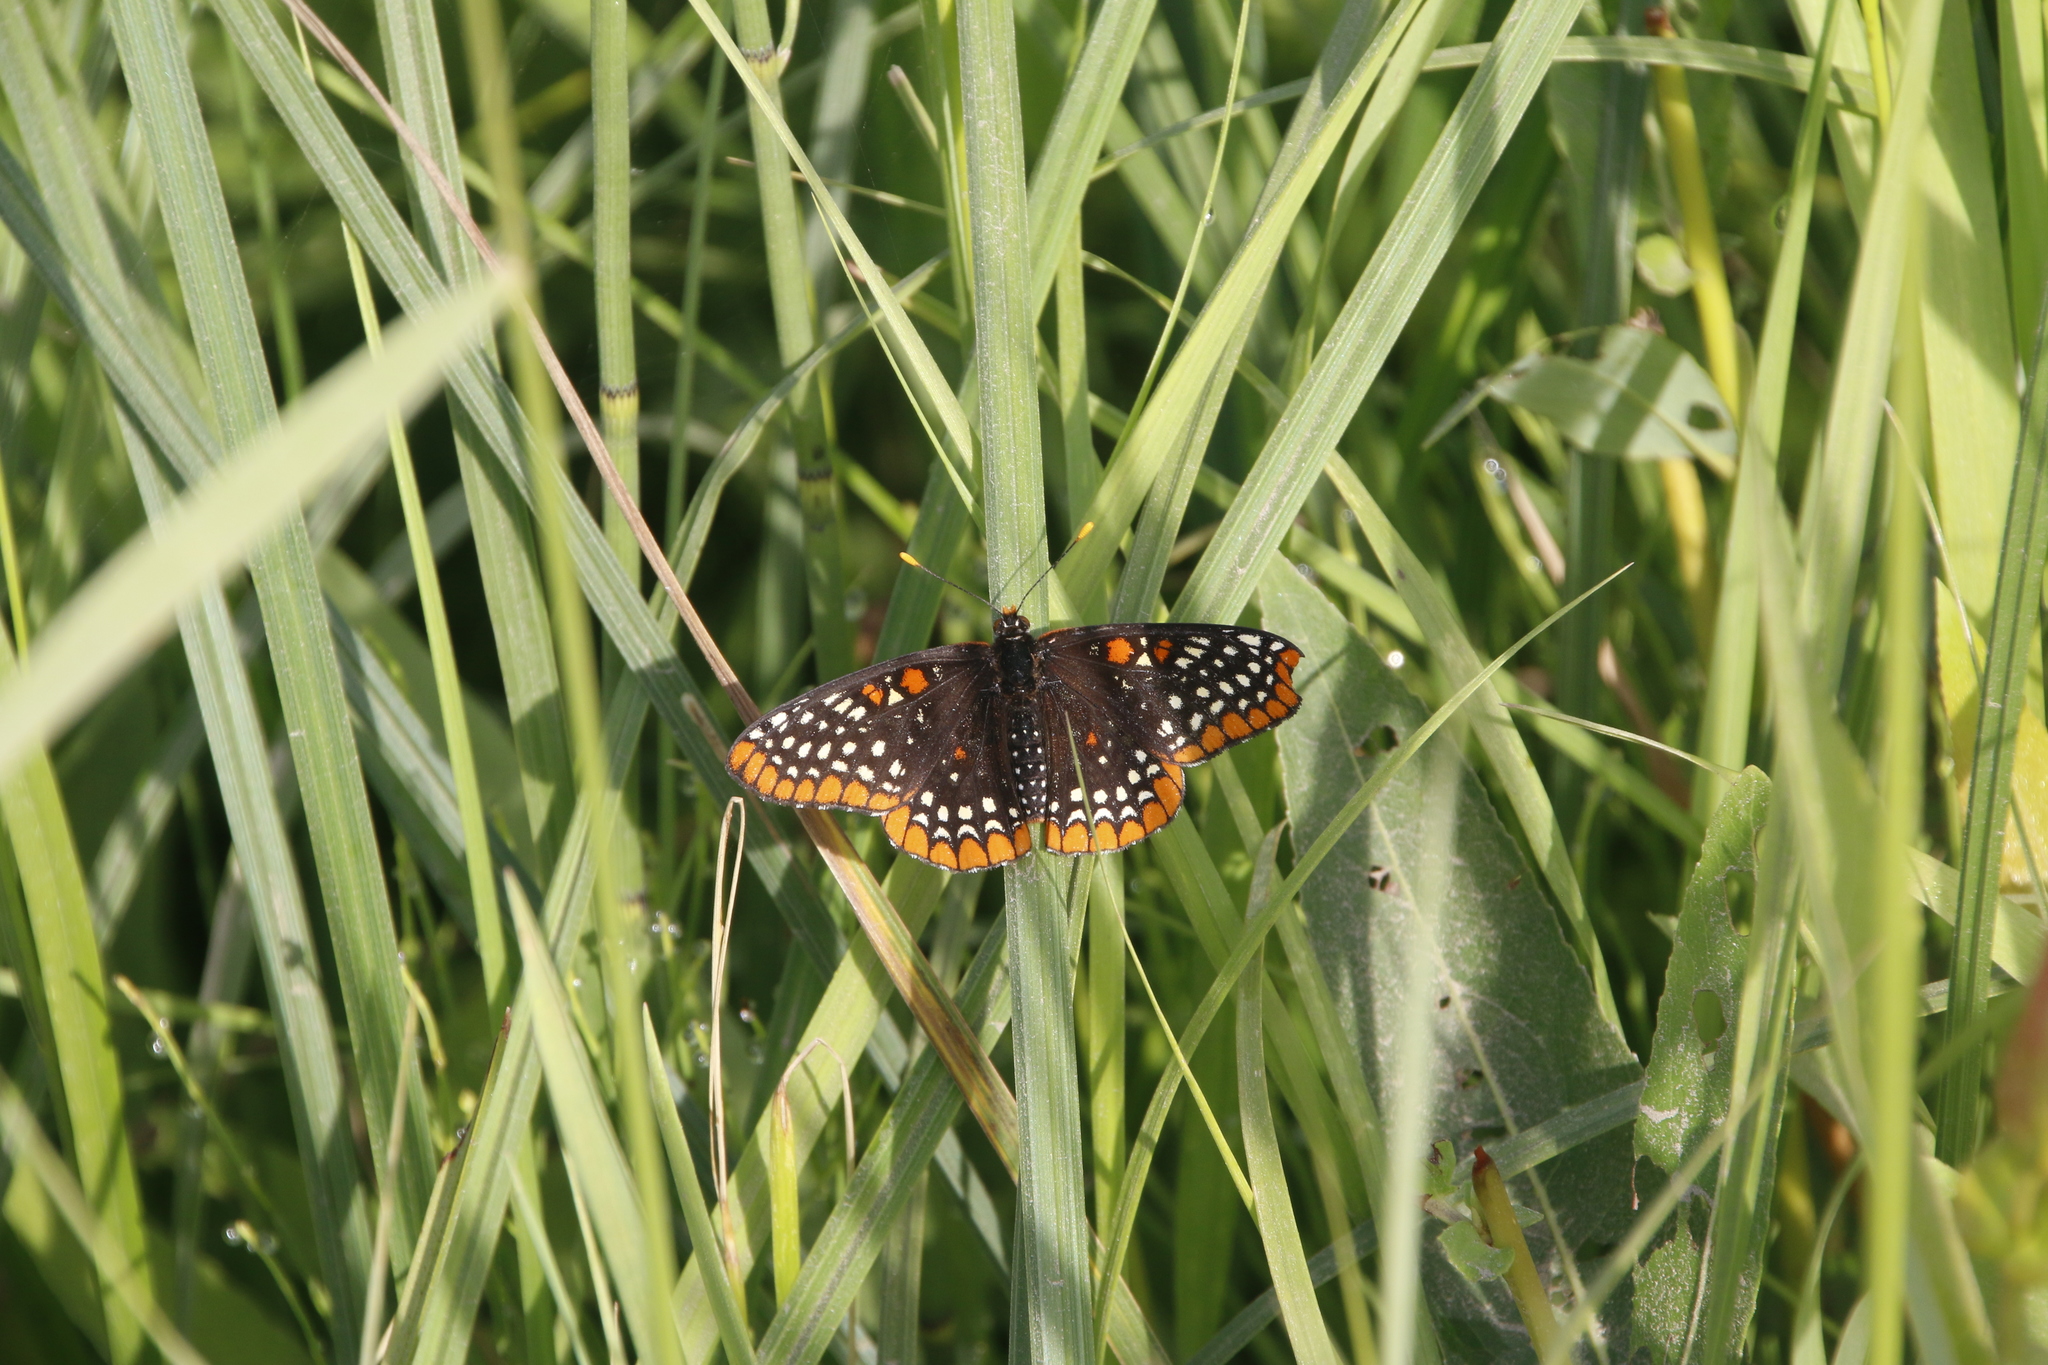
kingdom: Animalia
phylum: Arthropoda
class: Insecta
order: Lepidoptera
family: Nymphalidae
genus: Euphydryas
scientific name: Euphydryas phaeton
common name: Baltimore checkerspot
